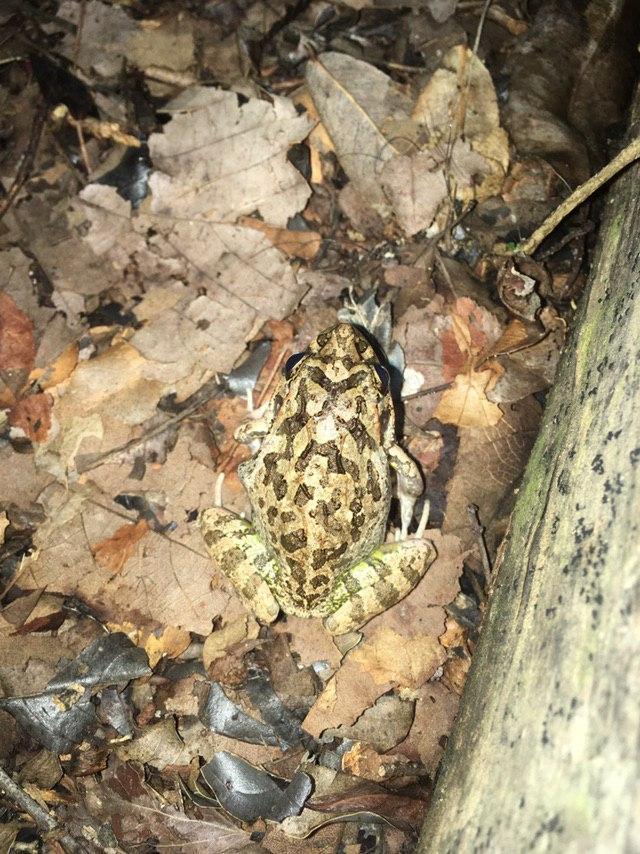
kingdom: Animalia
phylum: Chordata
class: Amphibia
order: Anura
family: Mantellidae
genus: Laliostoma
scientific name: Laliostoma labrosum
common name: Madagascar bullfrog
